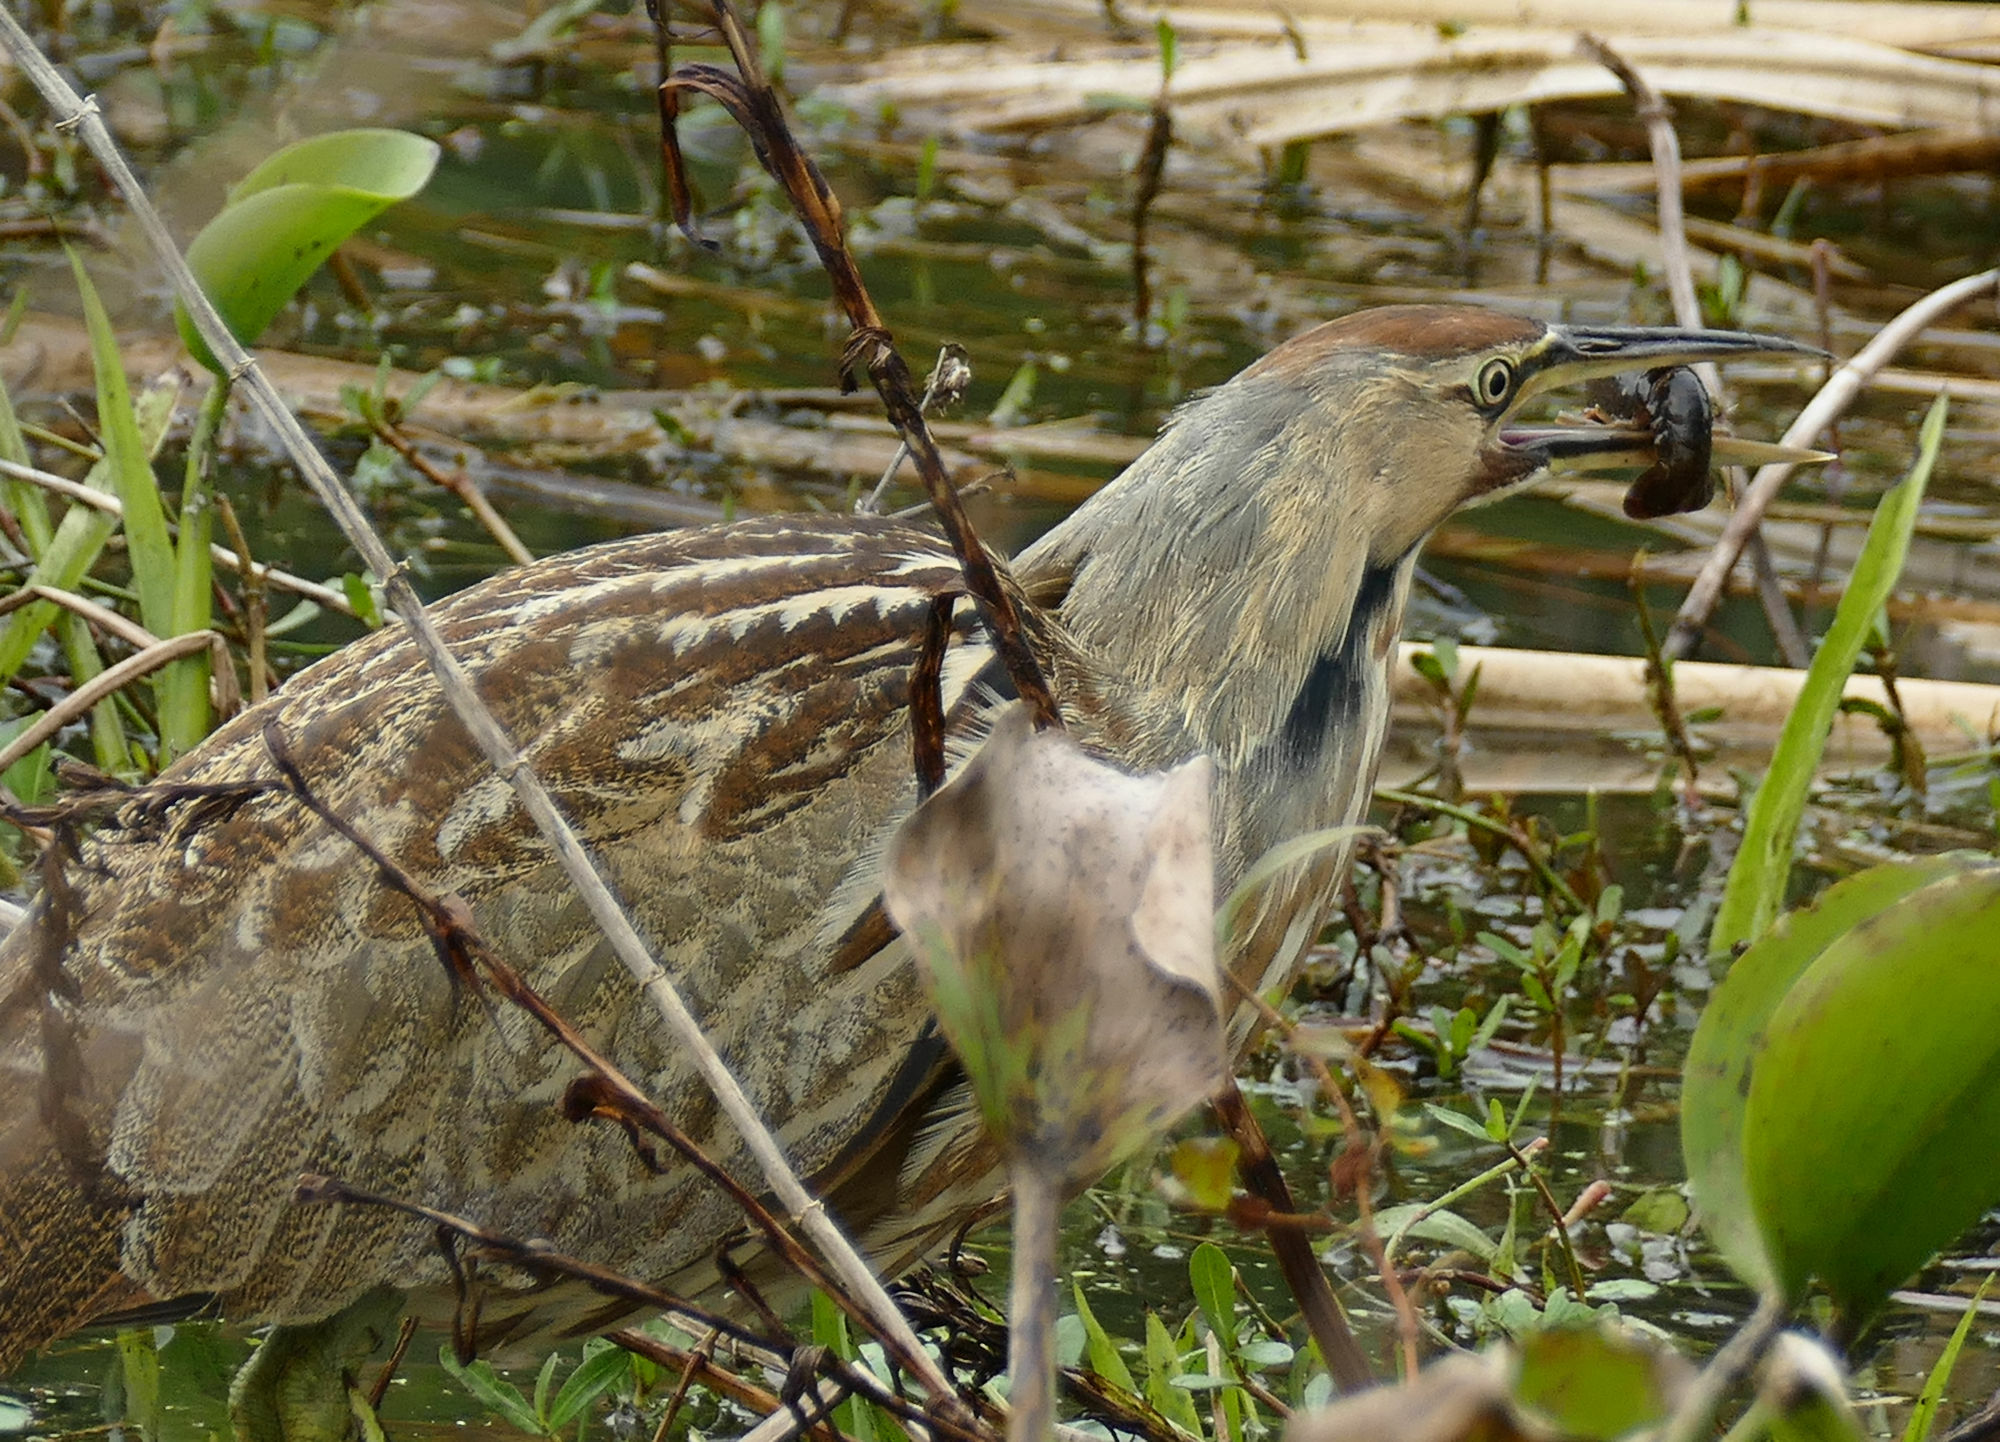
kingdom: Animalia
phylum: Chordata
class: Aves
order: Pelecaniformes
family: Ardeidae
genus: Botaurus
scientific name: Botaurus lentiginosus
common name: American bittern
